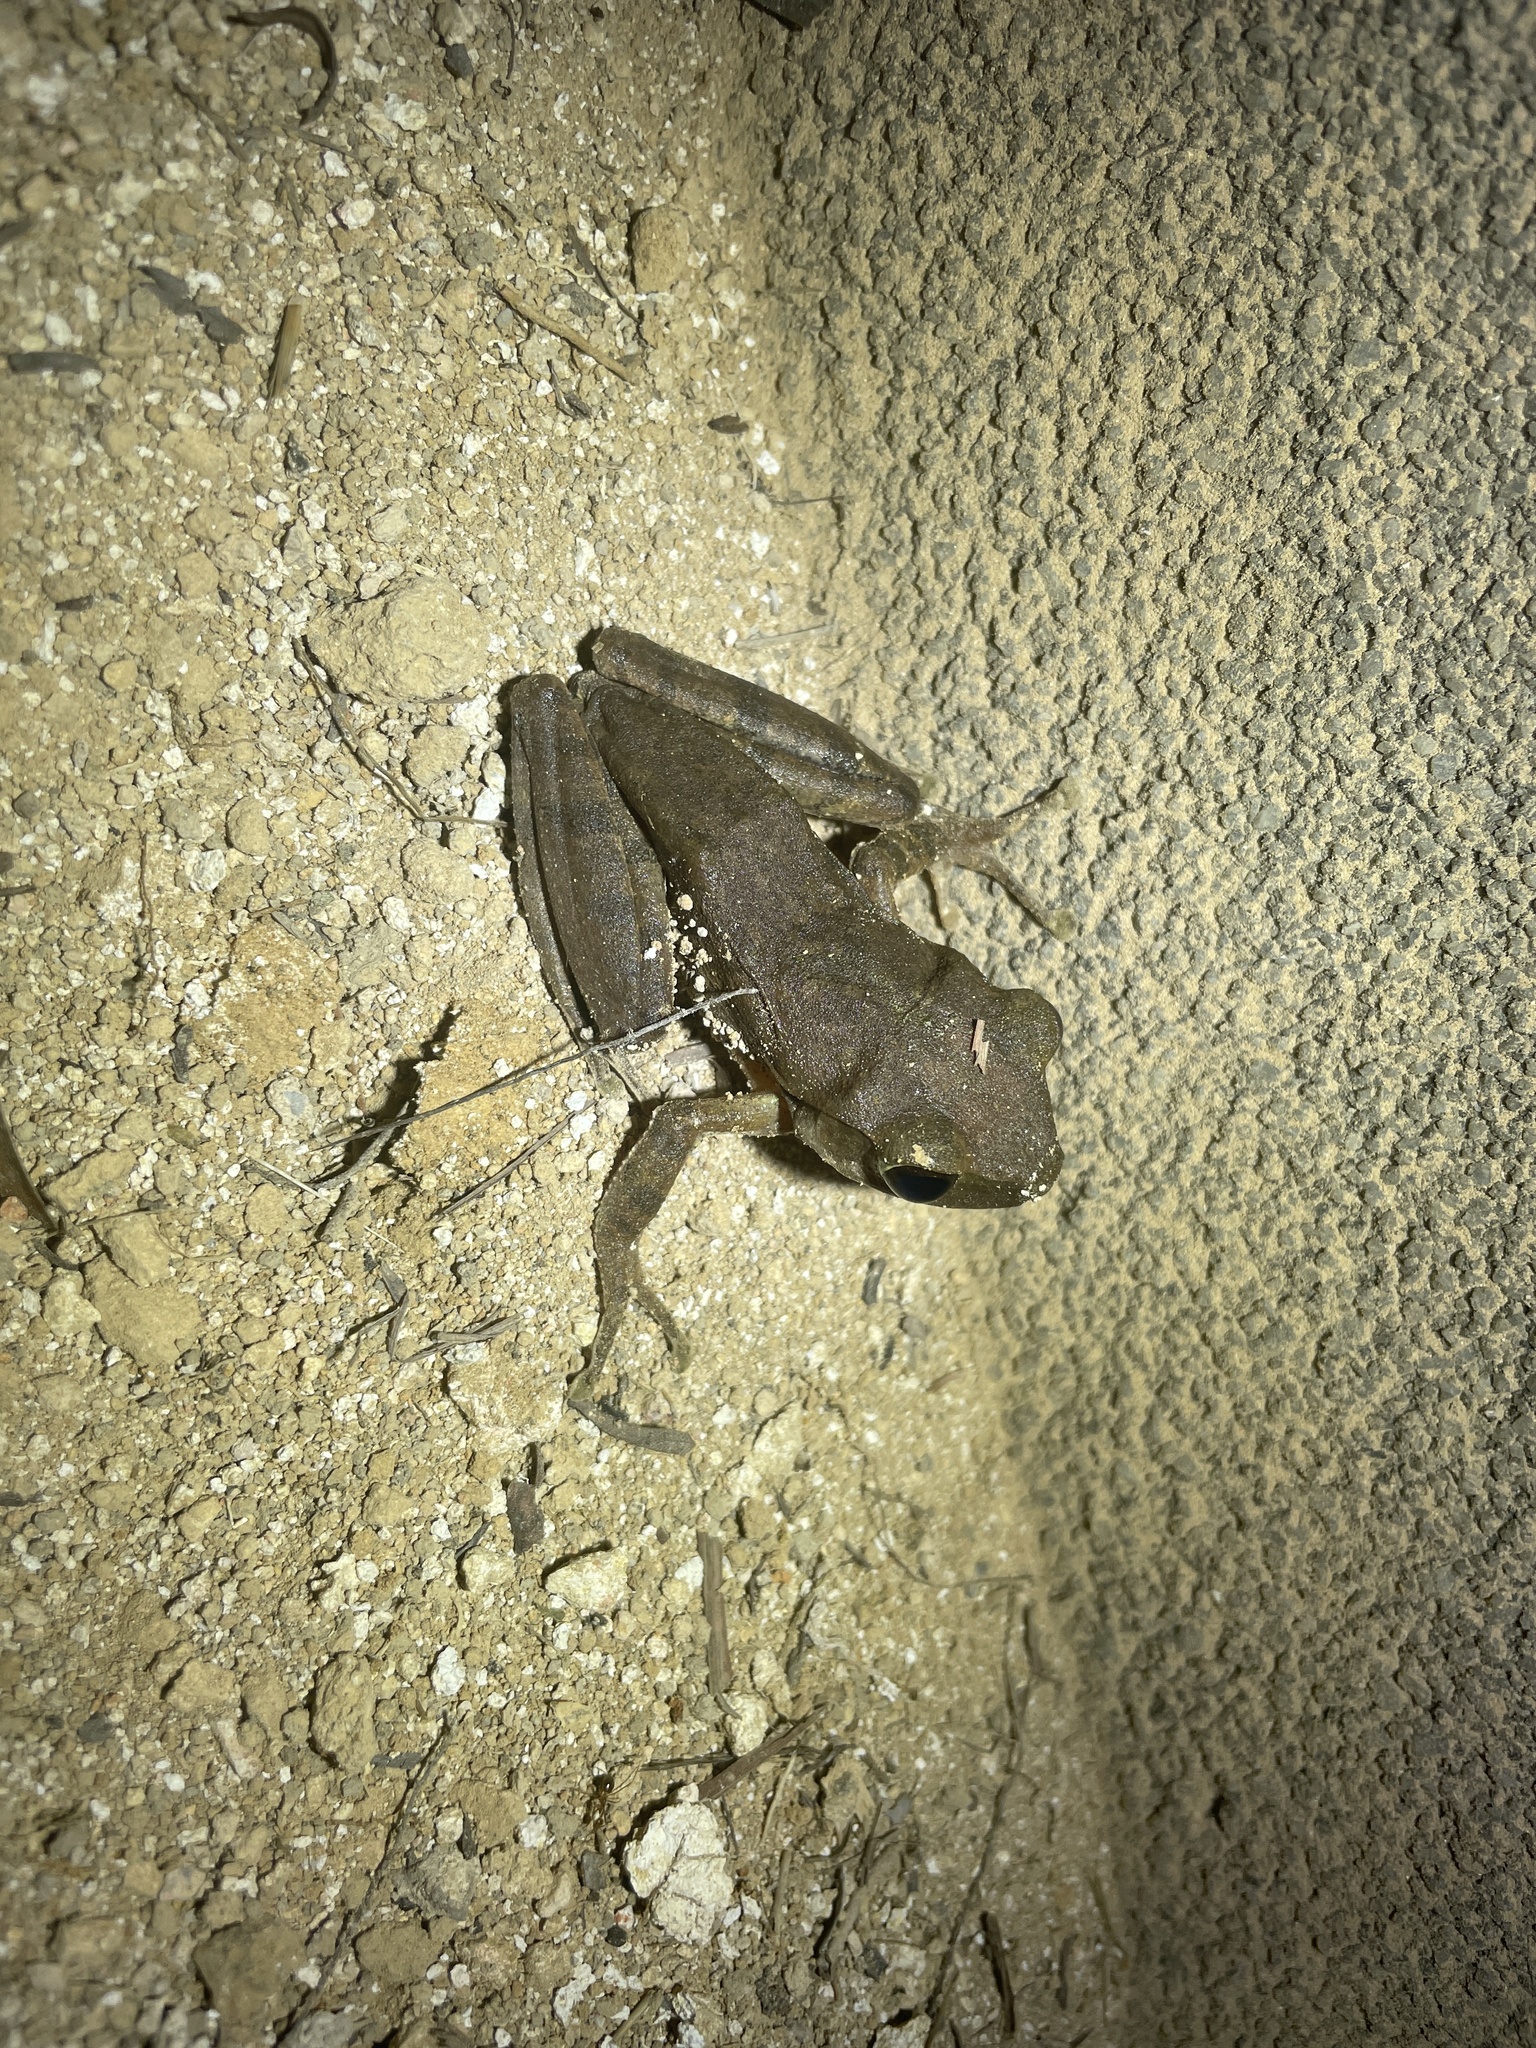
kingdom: Animalia
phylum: Chordata
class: Amphibia
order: Anura
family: Rhacophoridae
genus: Polypedates
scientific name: Polypedates megacephalus
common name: Hong kong whipping frog
